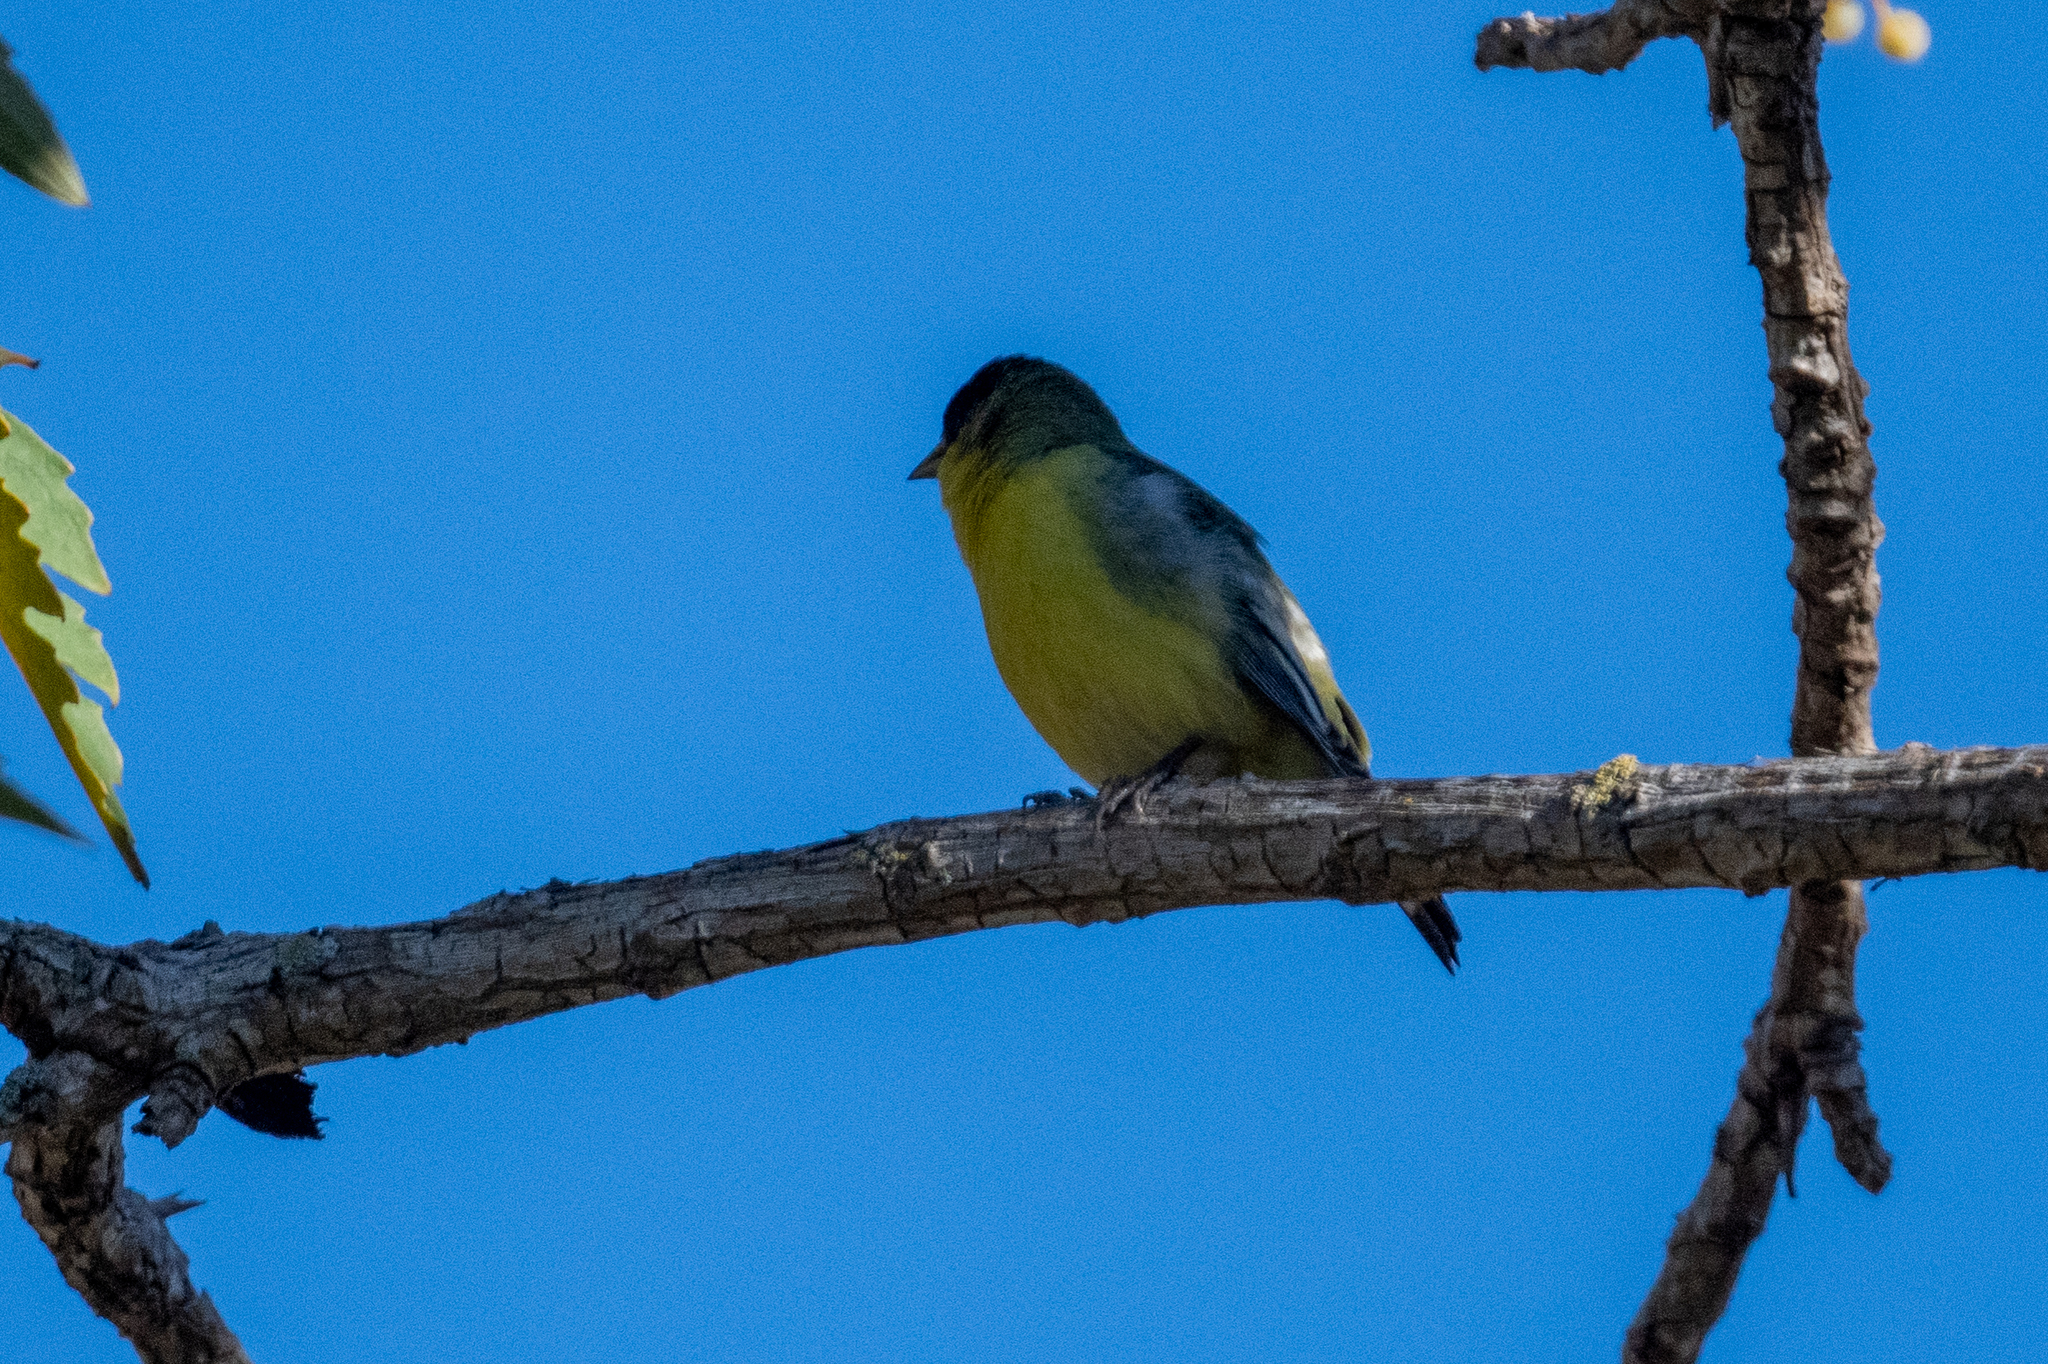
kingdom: Animalia
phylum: Chordata
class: Aves
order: Passeriformes
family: Fringillidae
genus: Spinus
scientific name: Spinus psaltria
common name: Lesser goldfinch
